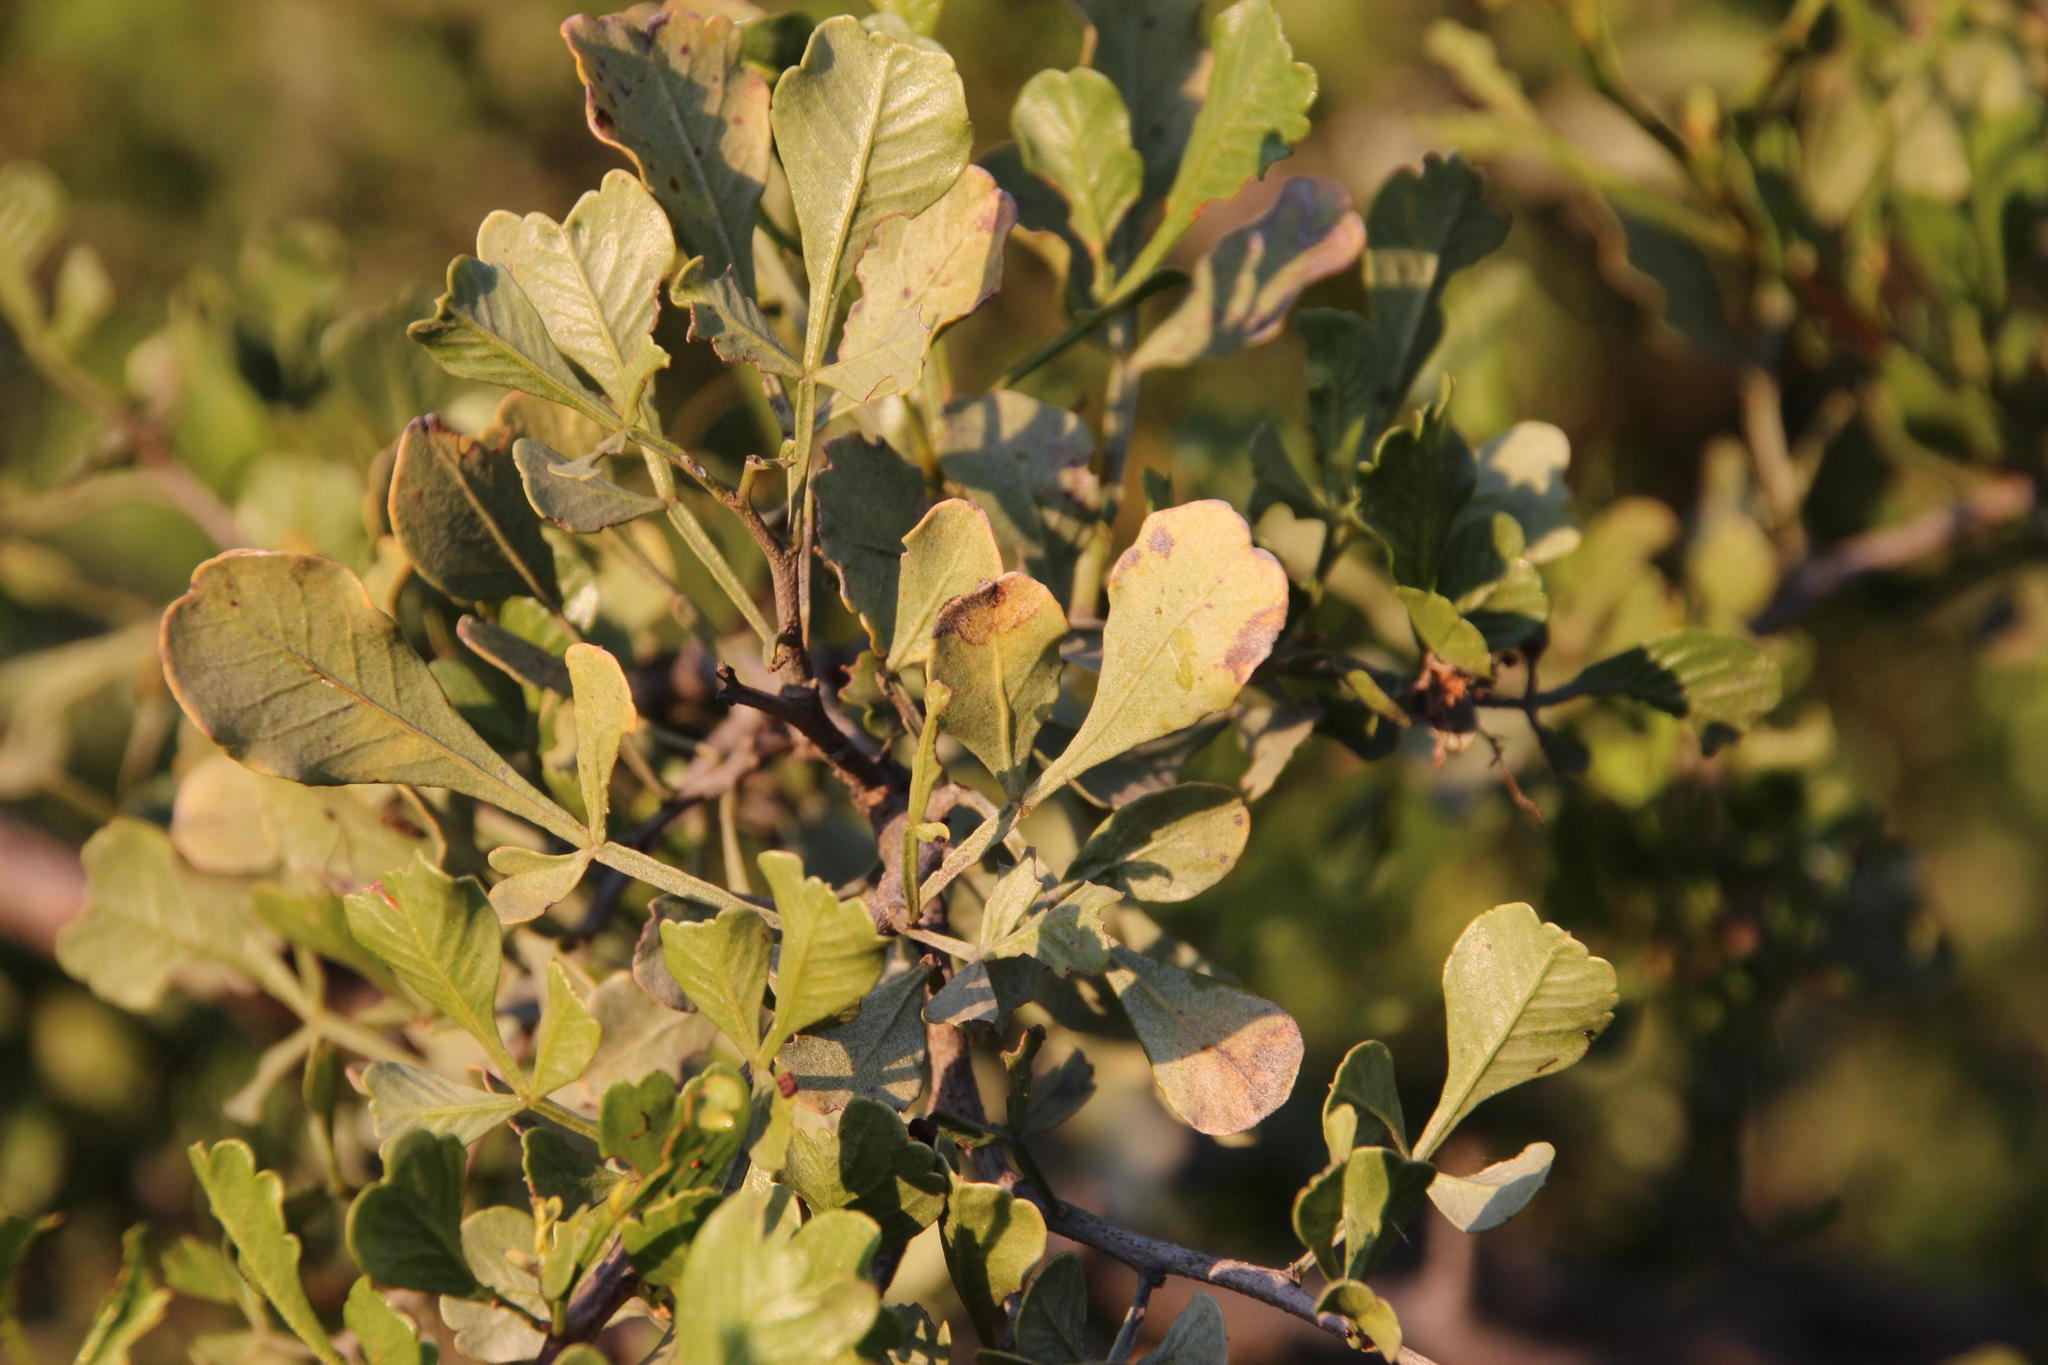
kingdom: Plantae
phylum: Tracheophyta
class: Magnoliopsida
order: Sapindales
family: Anacardiaceae
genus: Searsia
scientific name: Searsia undulata
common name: Namaqua kunibush
